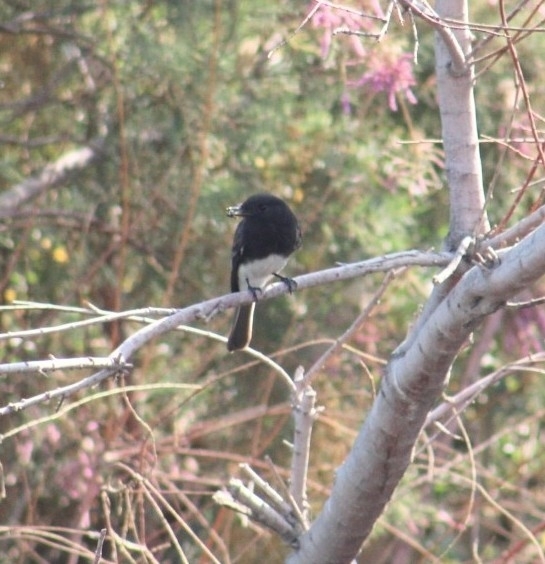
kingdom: Animalia
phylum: Chordata
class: Aves
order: Passeriformes
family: Tyrannidae
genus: Sayornis
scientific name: Sayornis nigricans
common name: Black phoebe
